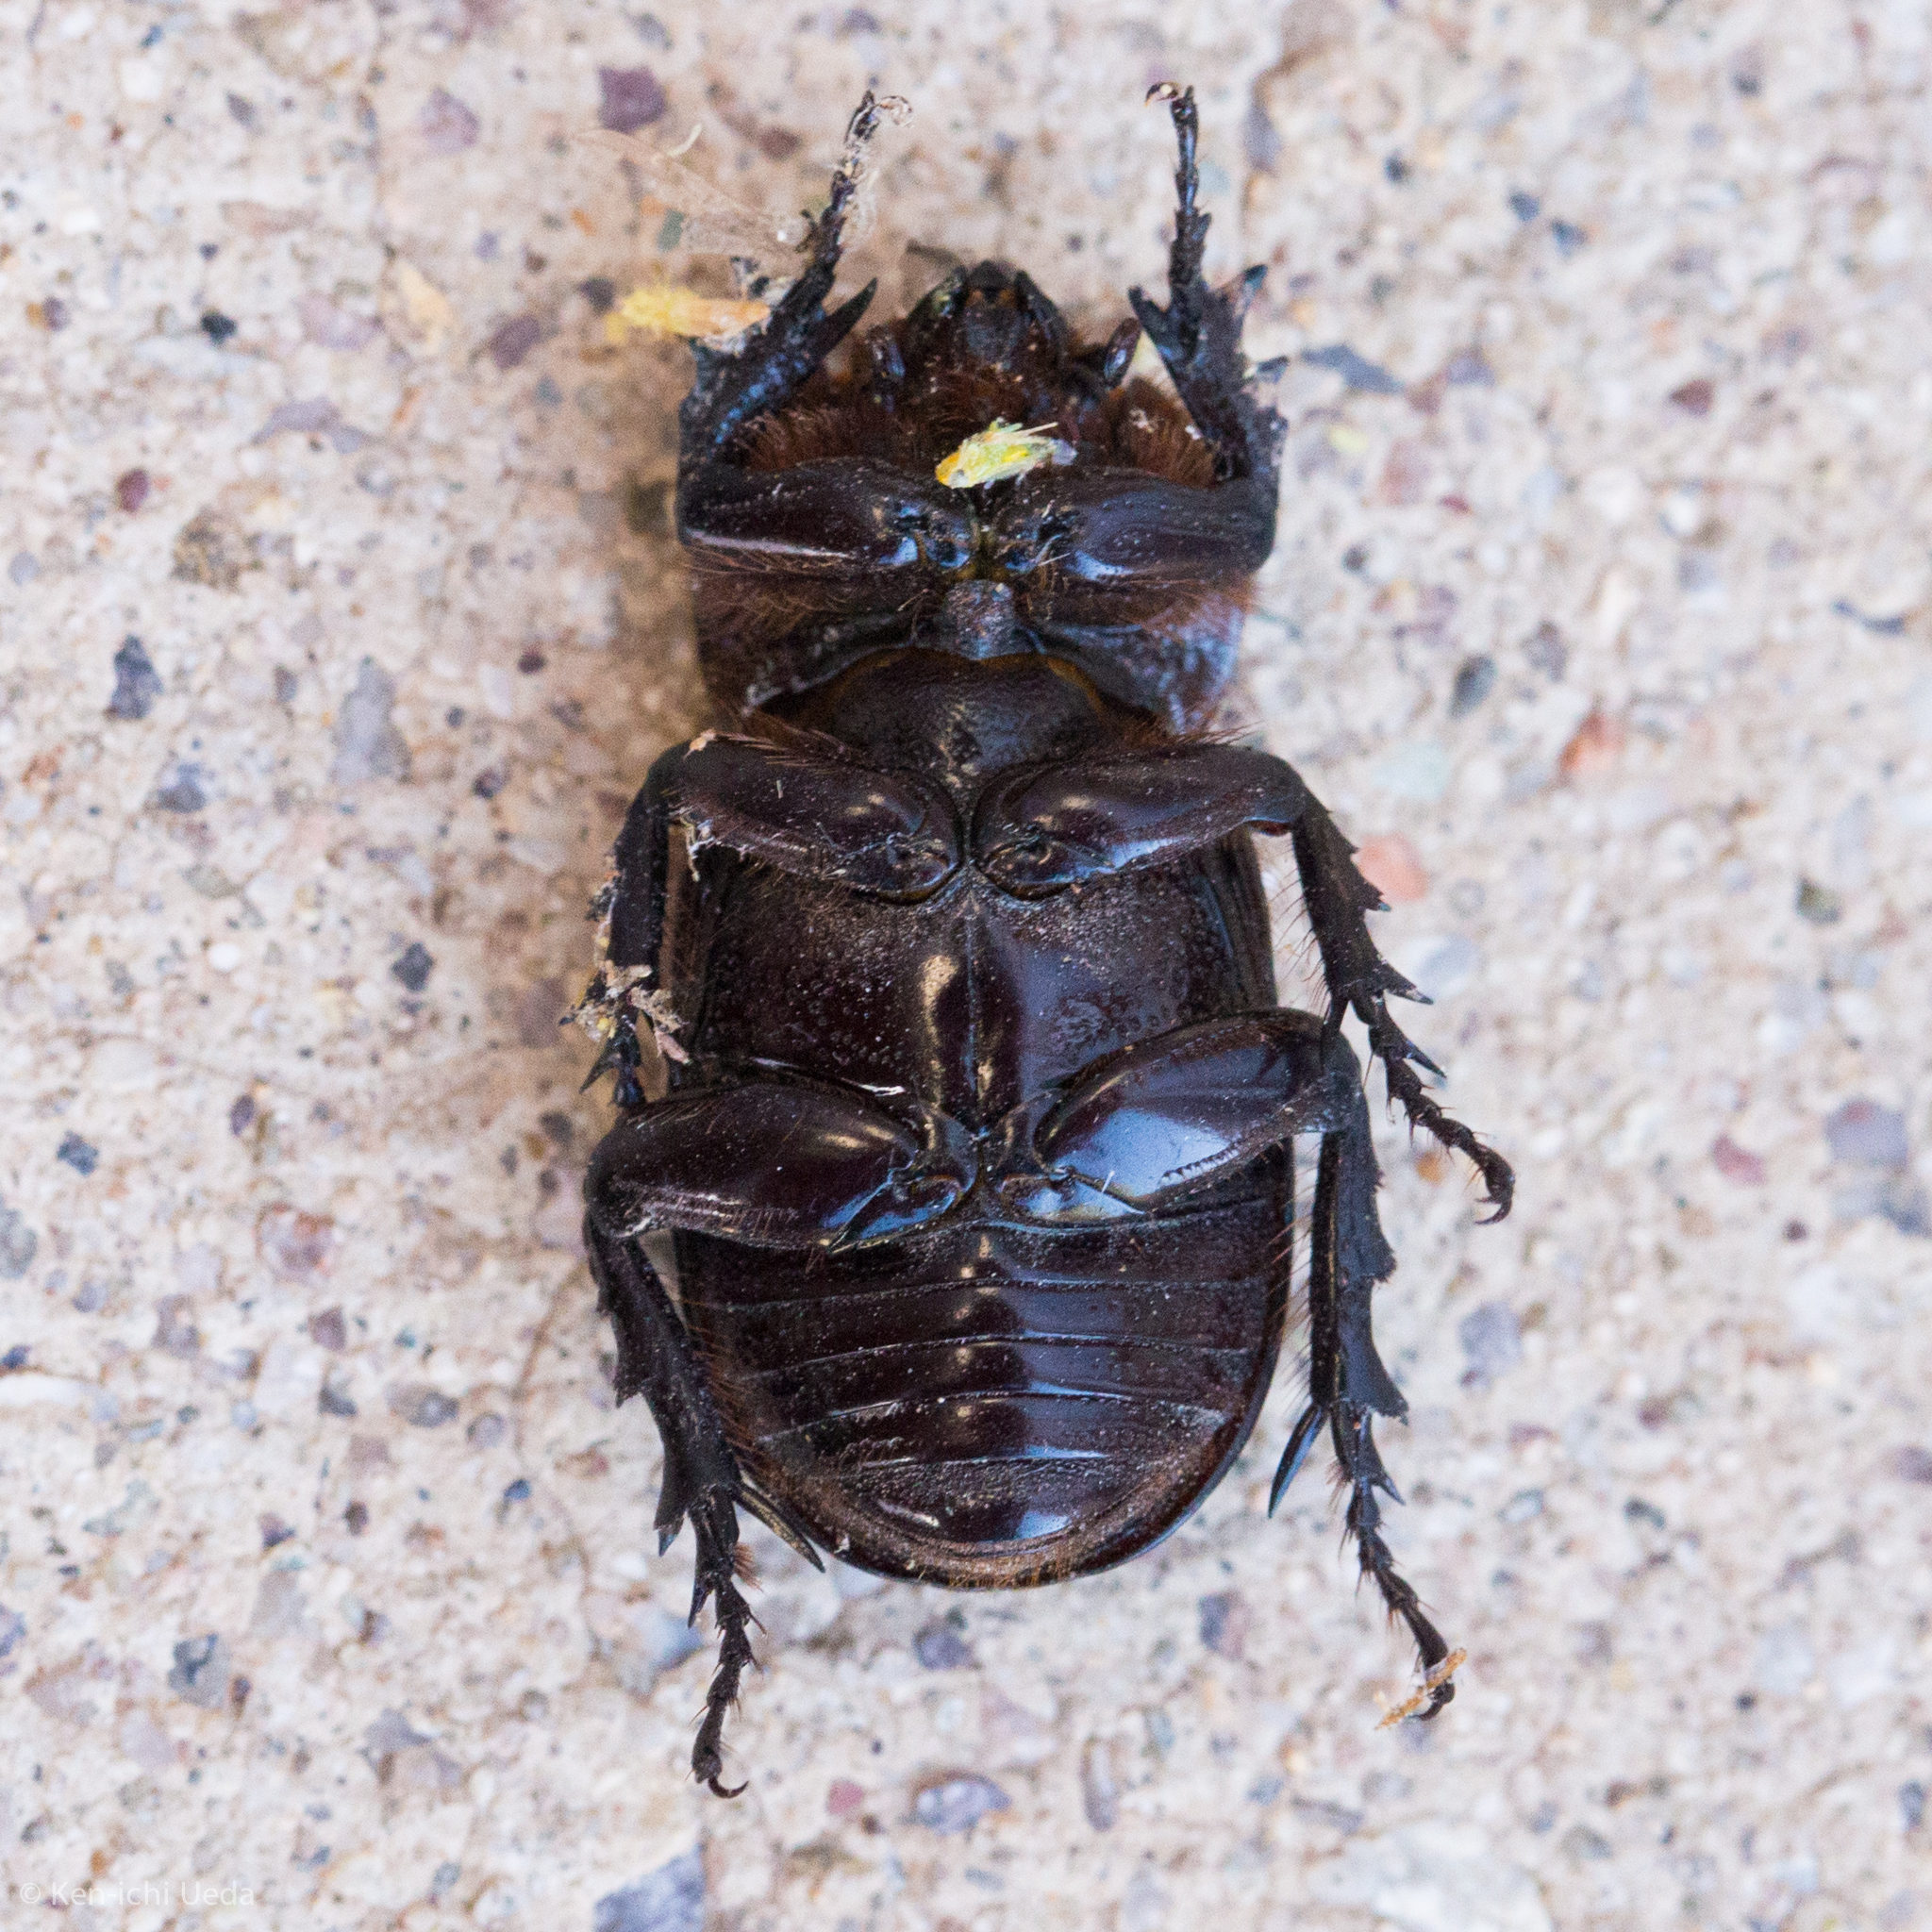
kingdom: Animalia
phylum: Arthropoda
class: Insecta
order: Coleoptera
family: Scarabaeidae
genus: Hemiphileurus
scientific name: Hemiphileurus illatus
